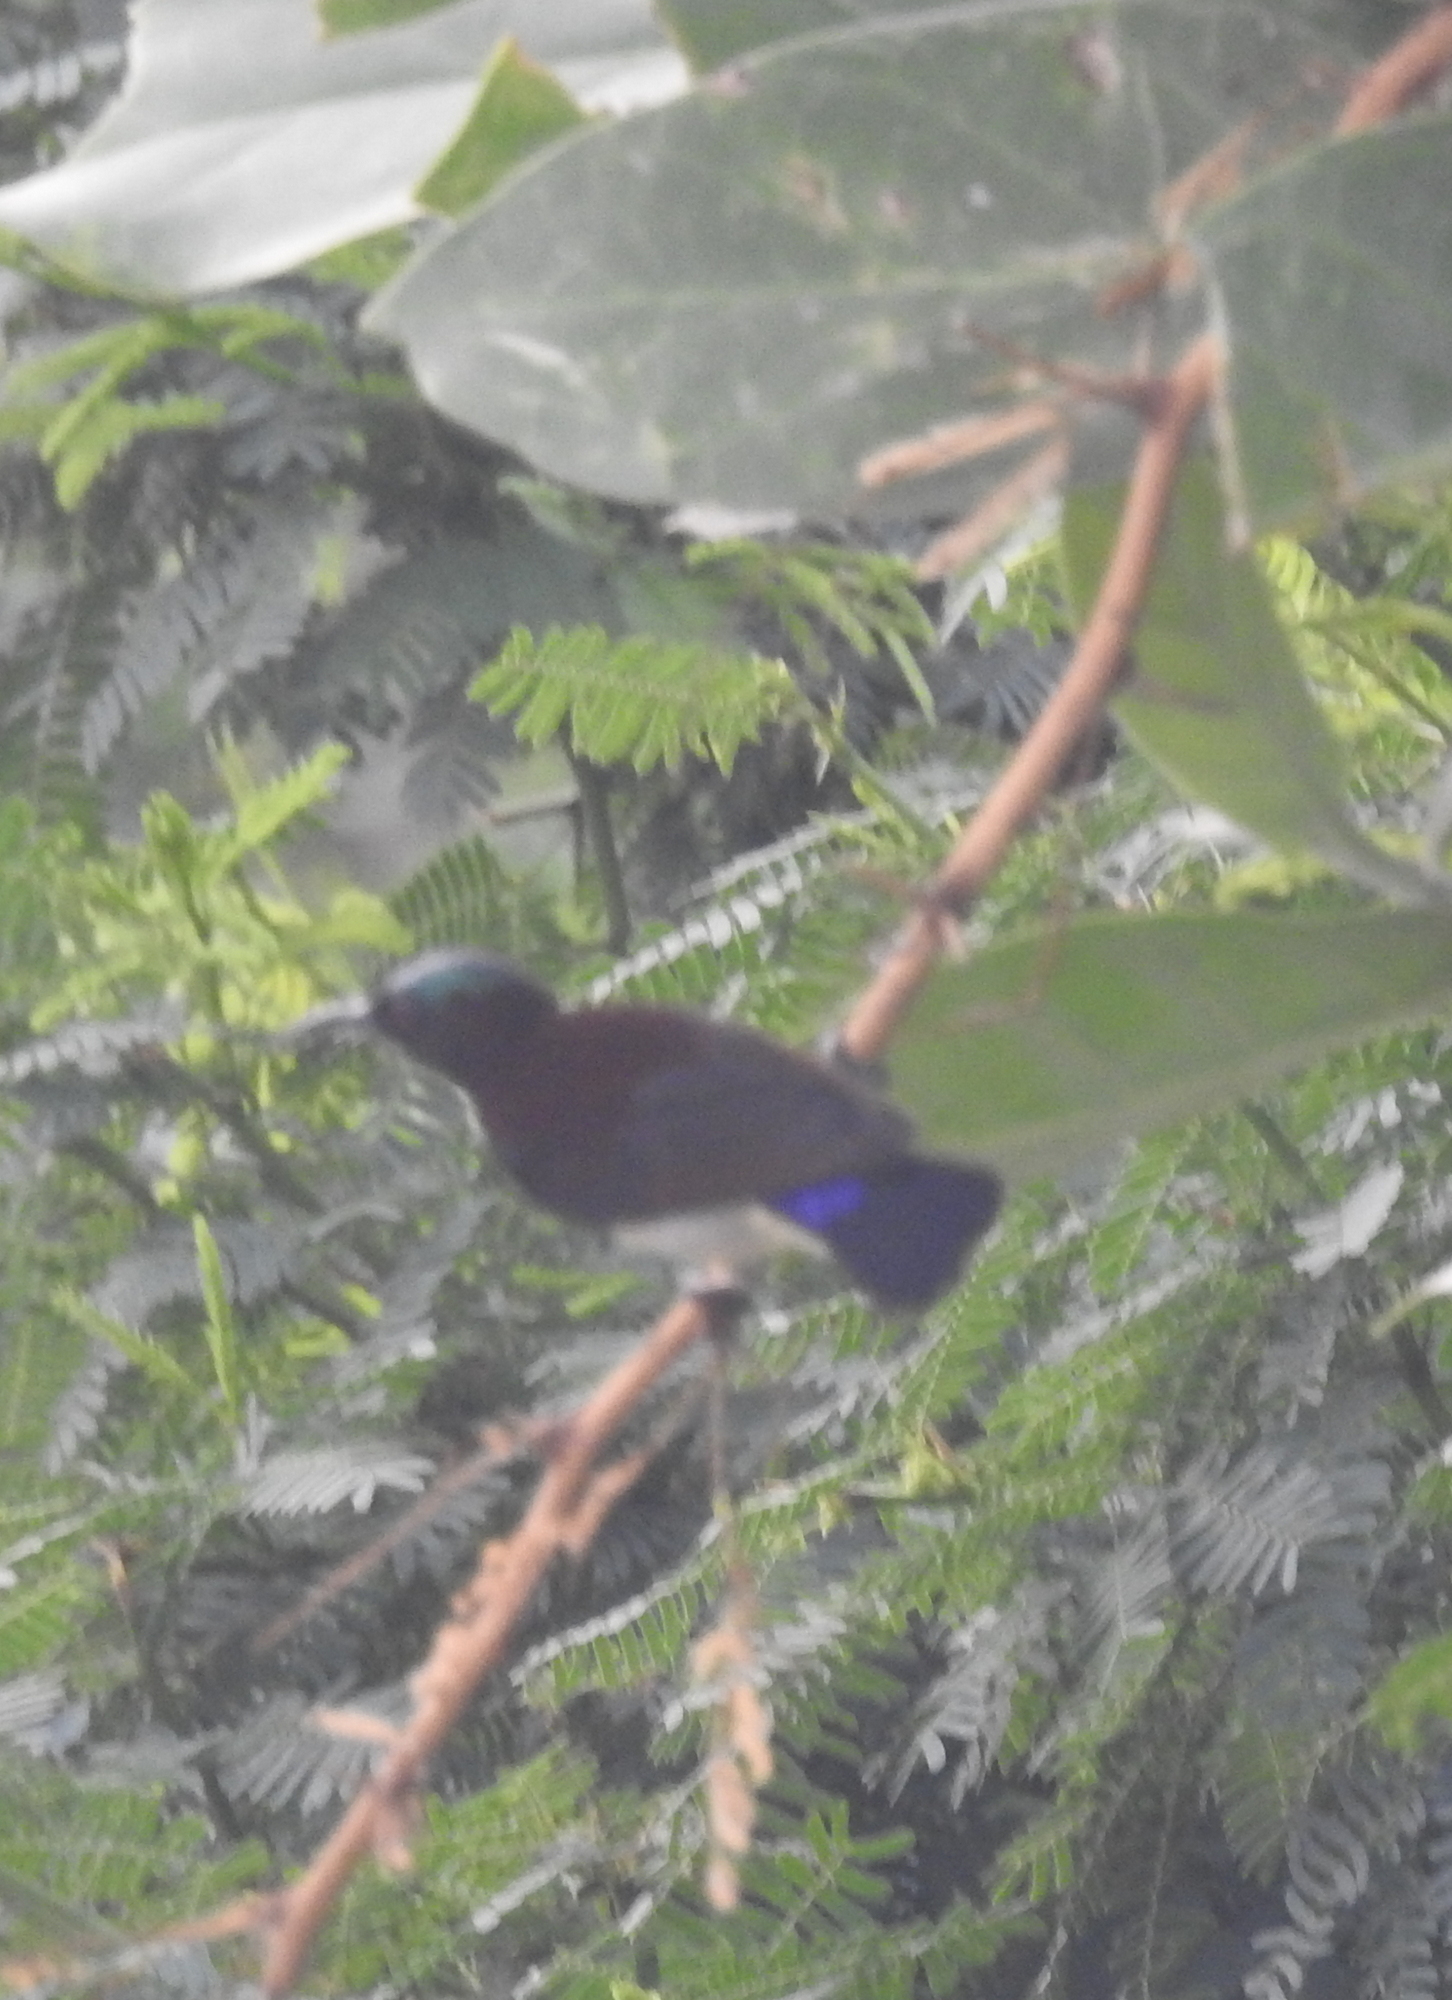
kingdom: Animalia
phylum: Chordata
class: Aves
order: Passeriformes
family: Nectariniidae
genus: Leptocoma
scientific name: Leptocoma zeylonica
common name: Purple-rumped sunbird
